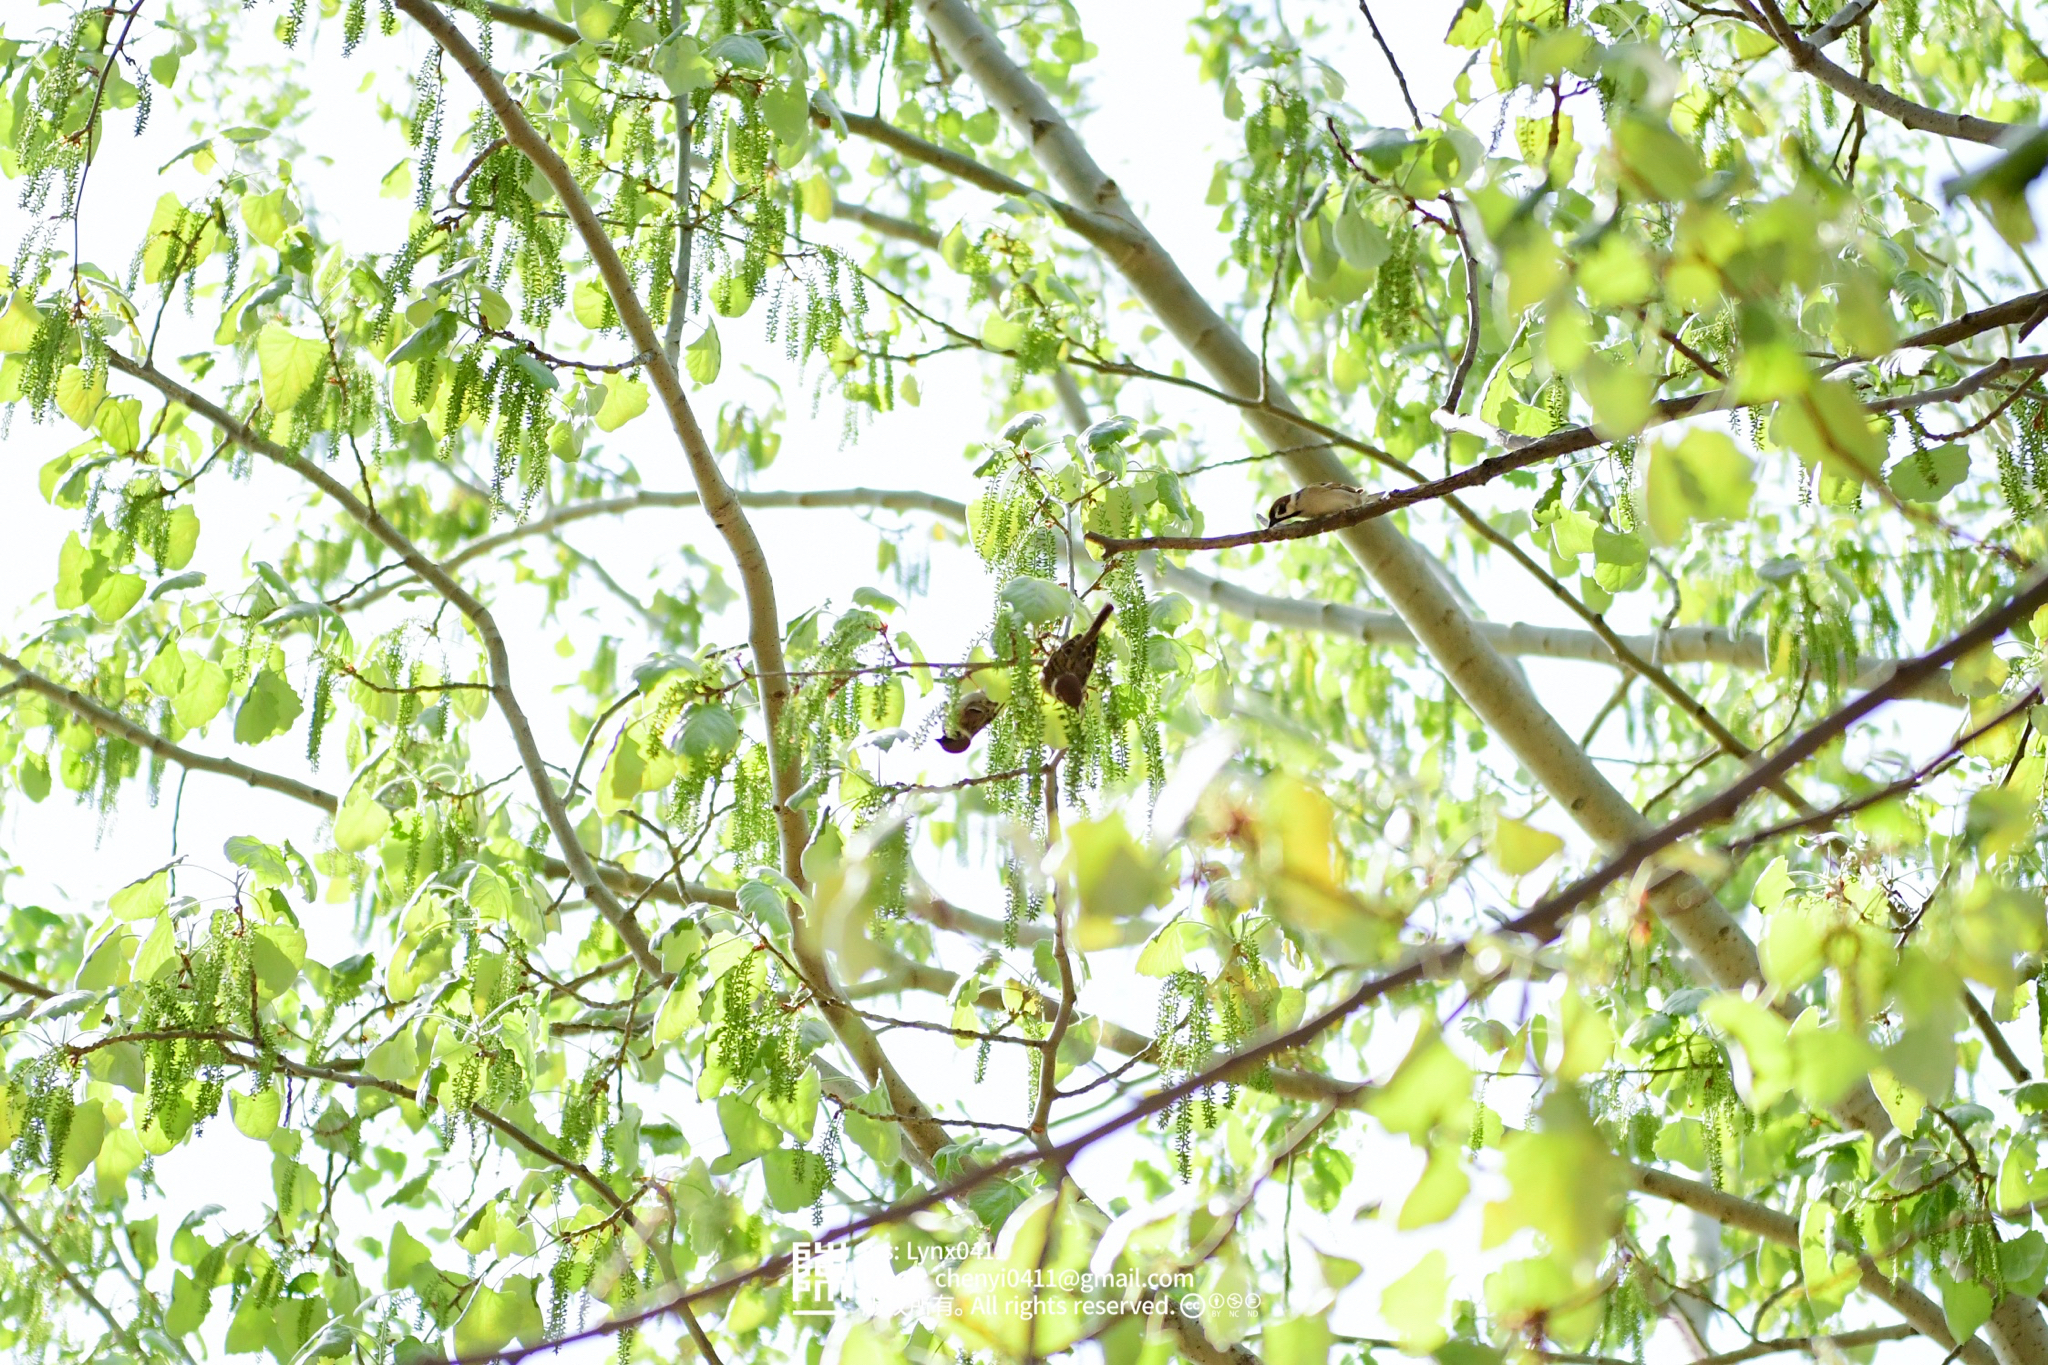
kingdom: Animalia
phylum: Chordata
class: Aves
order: Passeriformes
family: Passeridae
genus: Passer
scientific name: Passer montanus
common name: Eurasian tree sparrow
